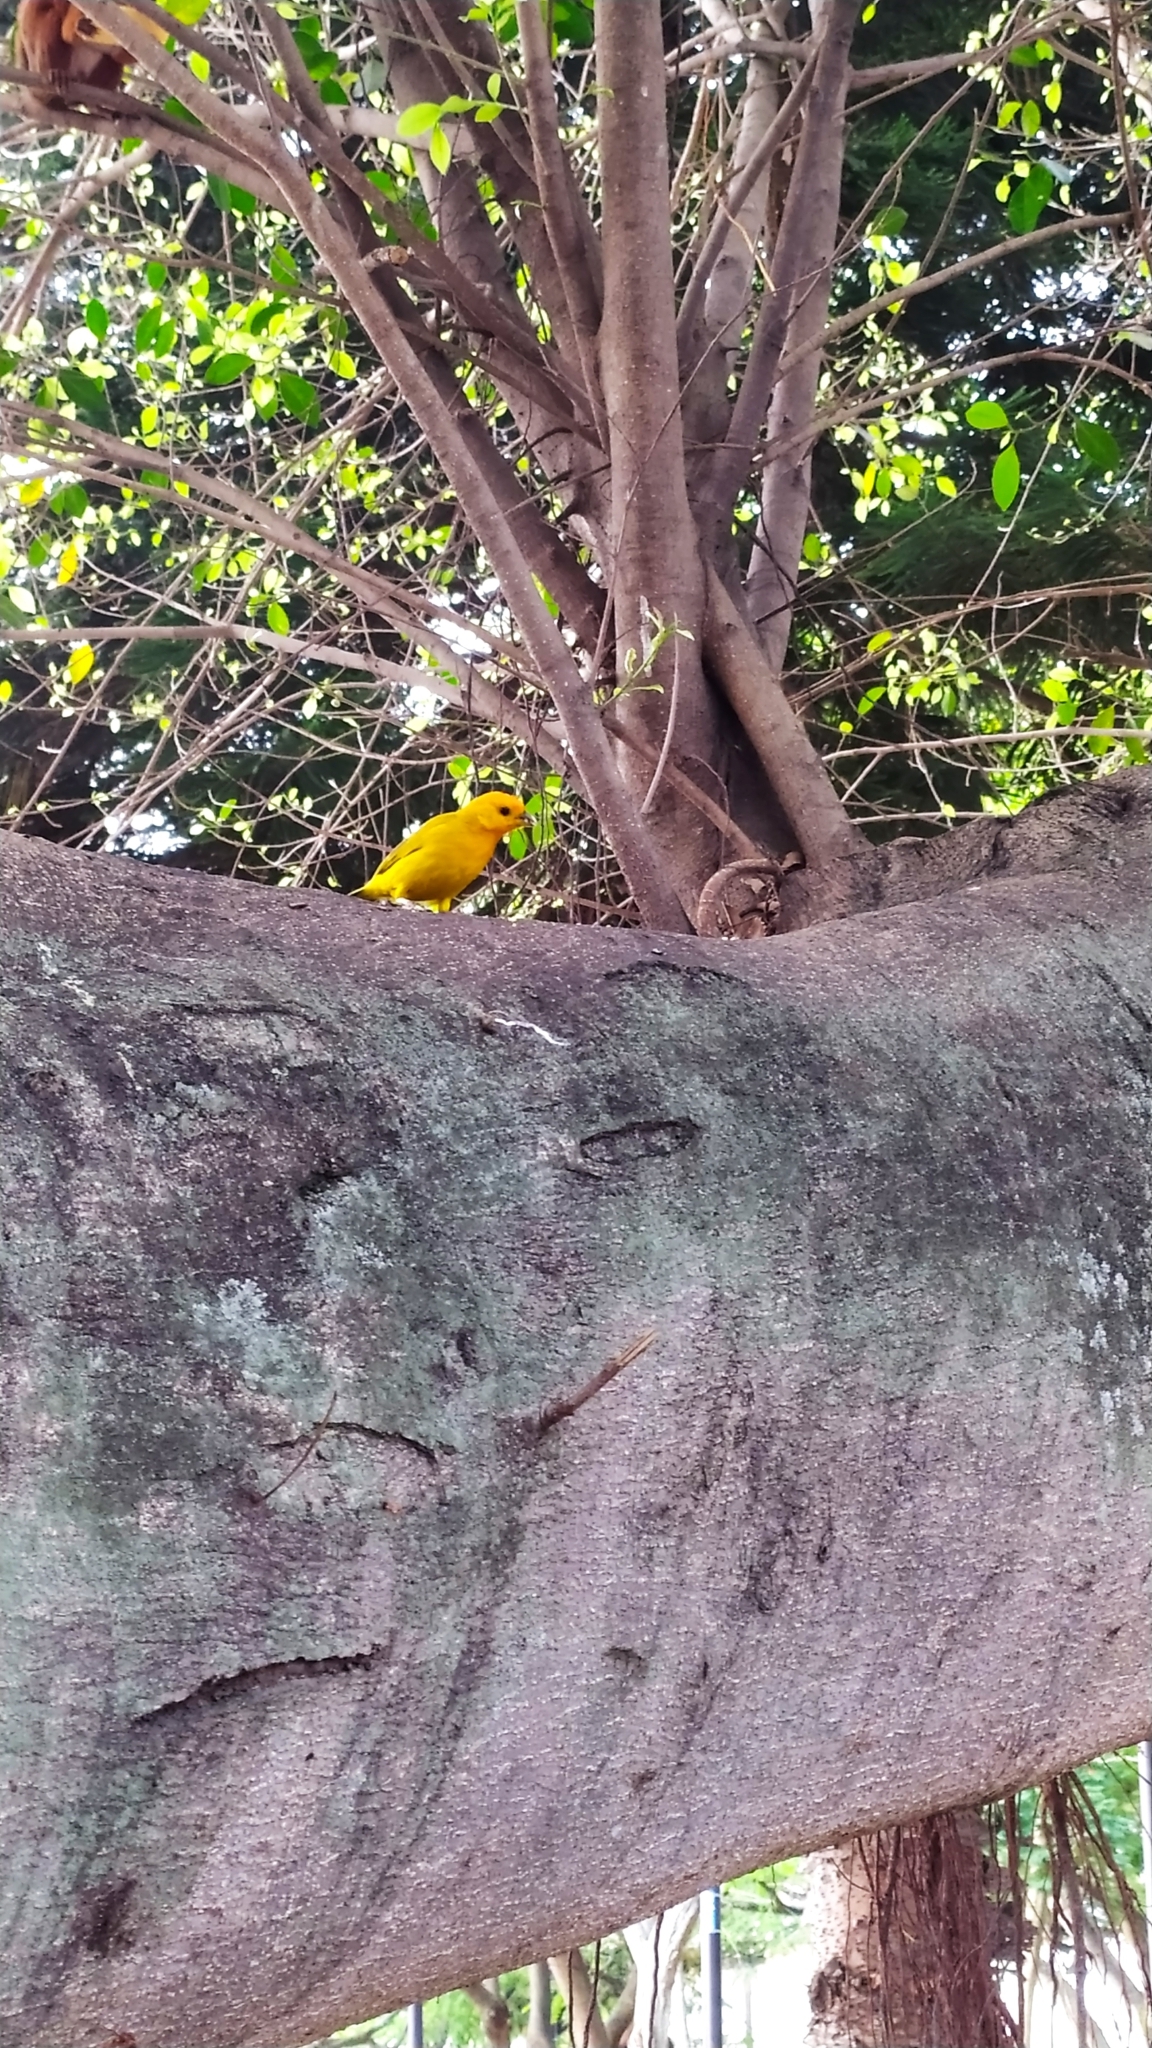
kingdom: Animalia
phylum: Chordata
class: Aves
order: Passeriformes
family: Thraupidae
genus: Sicalis
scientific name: Sicalis flaveola
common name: Saffron finch
